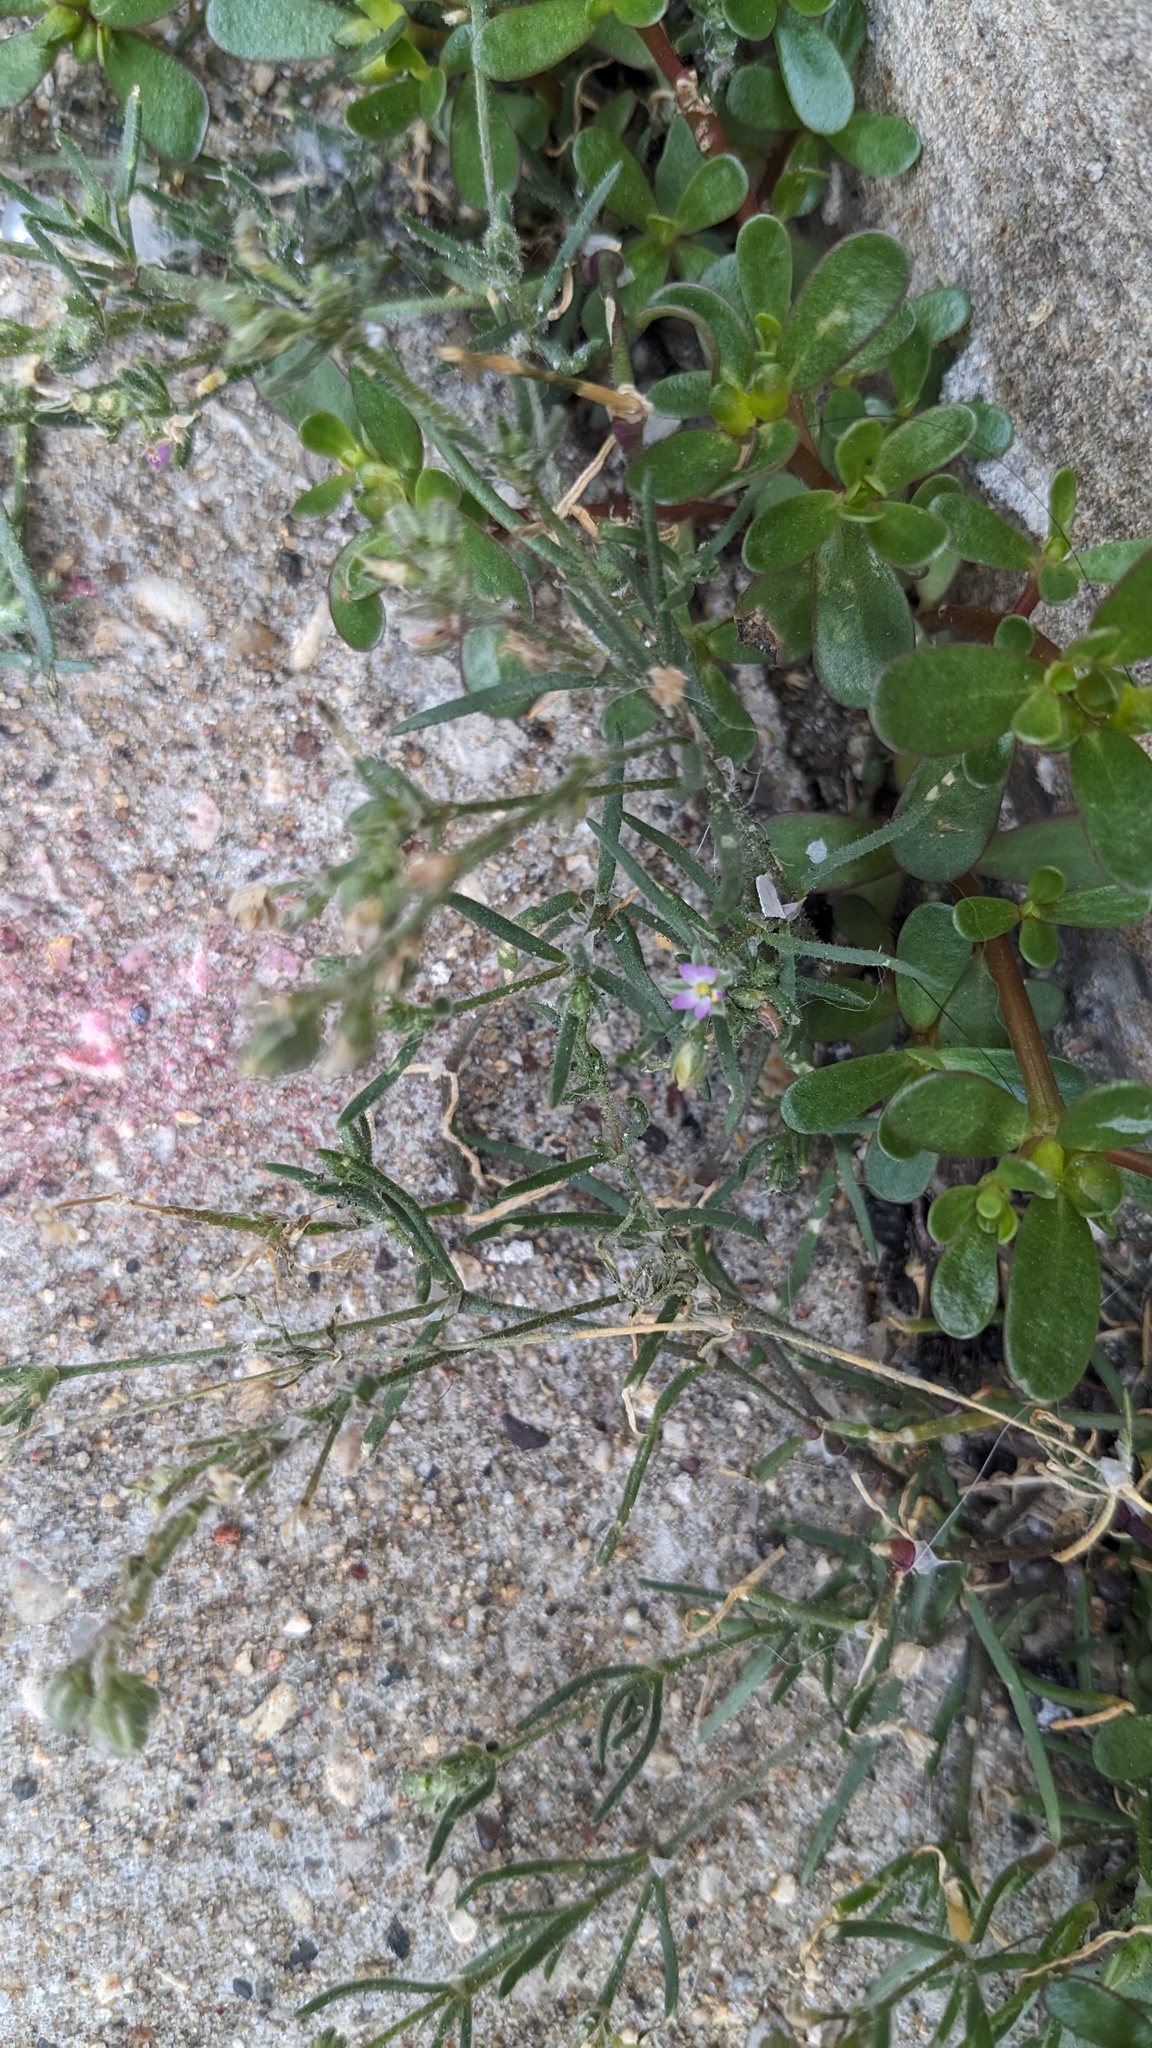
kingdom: Plantae
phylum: Tracheophyta
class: Magnoliopsida
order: Caryophyllales
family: Caryophyllaceae
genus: Spergularia
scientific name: Spergularia marina
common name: Lesser sea-spurrey
